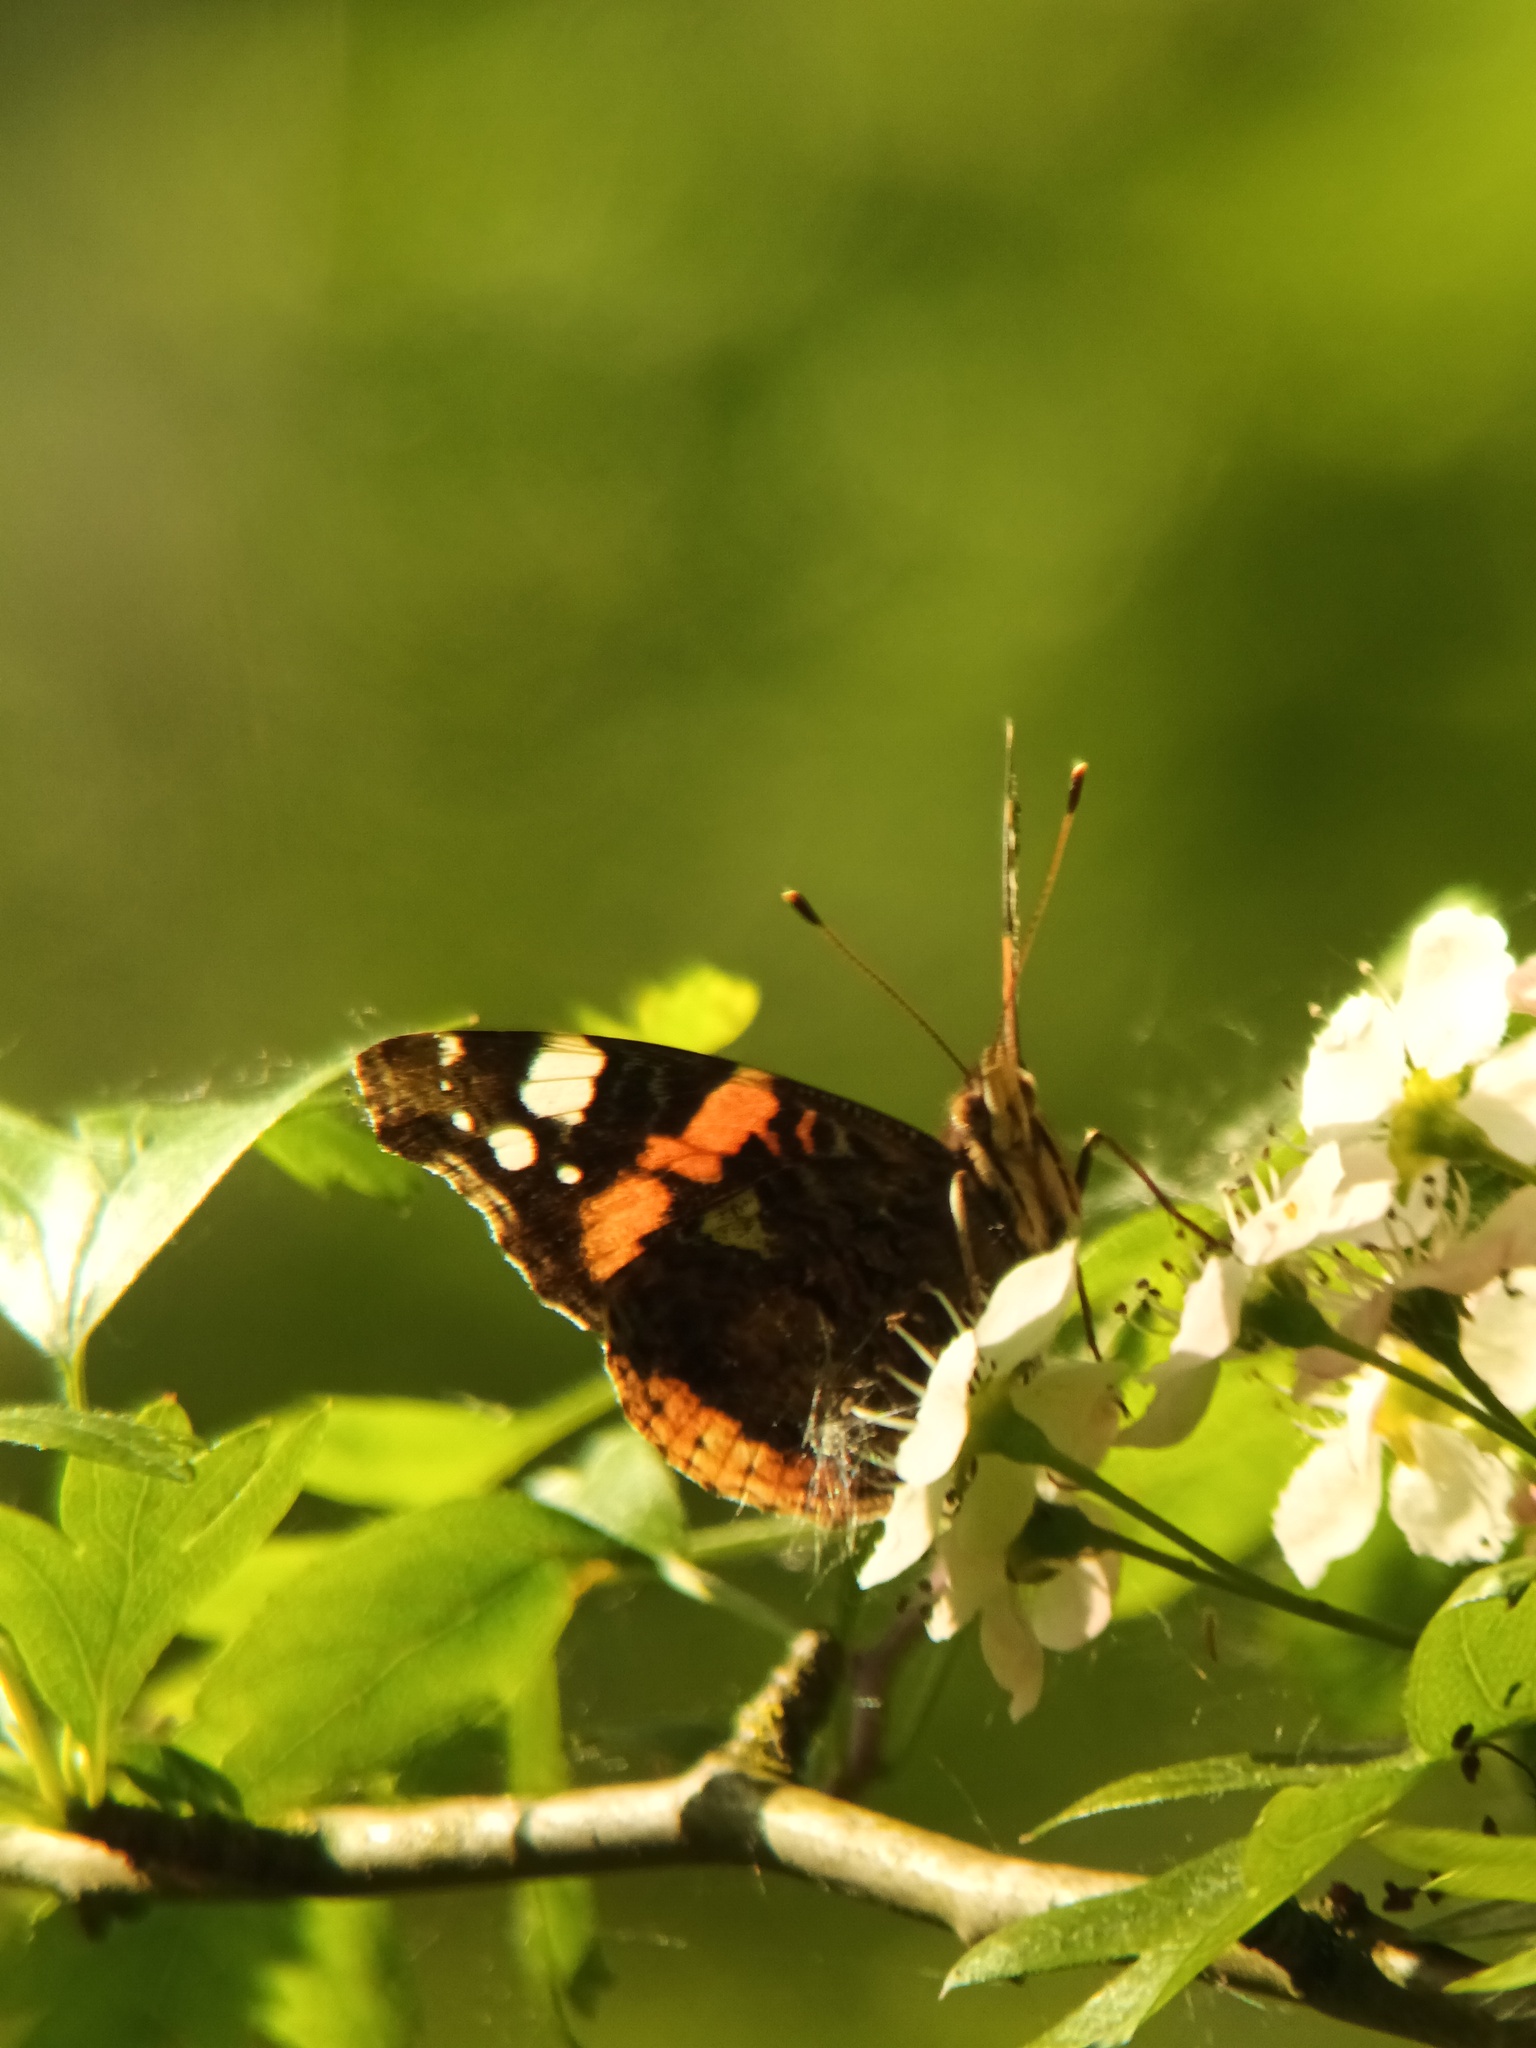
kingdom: Animalia
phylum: Arthropoda
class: Insecta
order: Lepidoptera
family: Nymphalidae
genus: Vanessa
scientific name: Vanessa atalanta
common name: Red admiral
